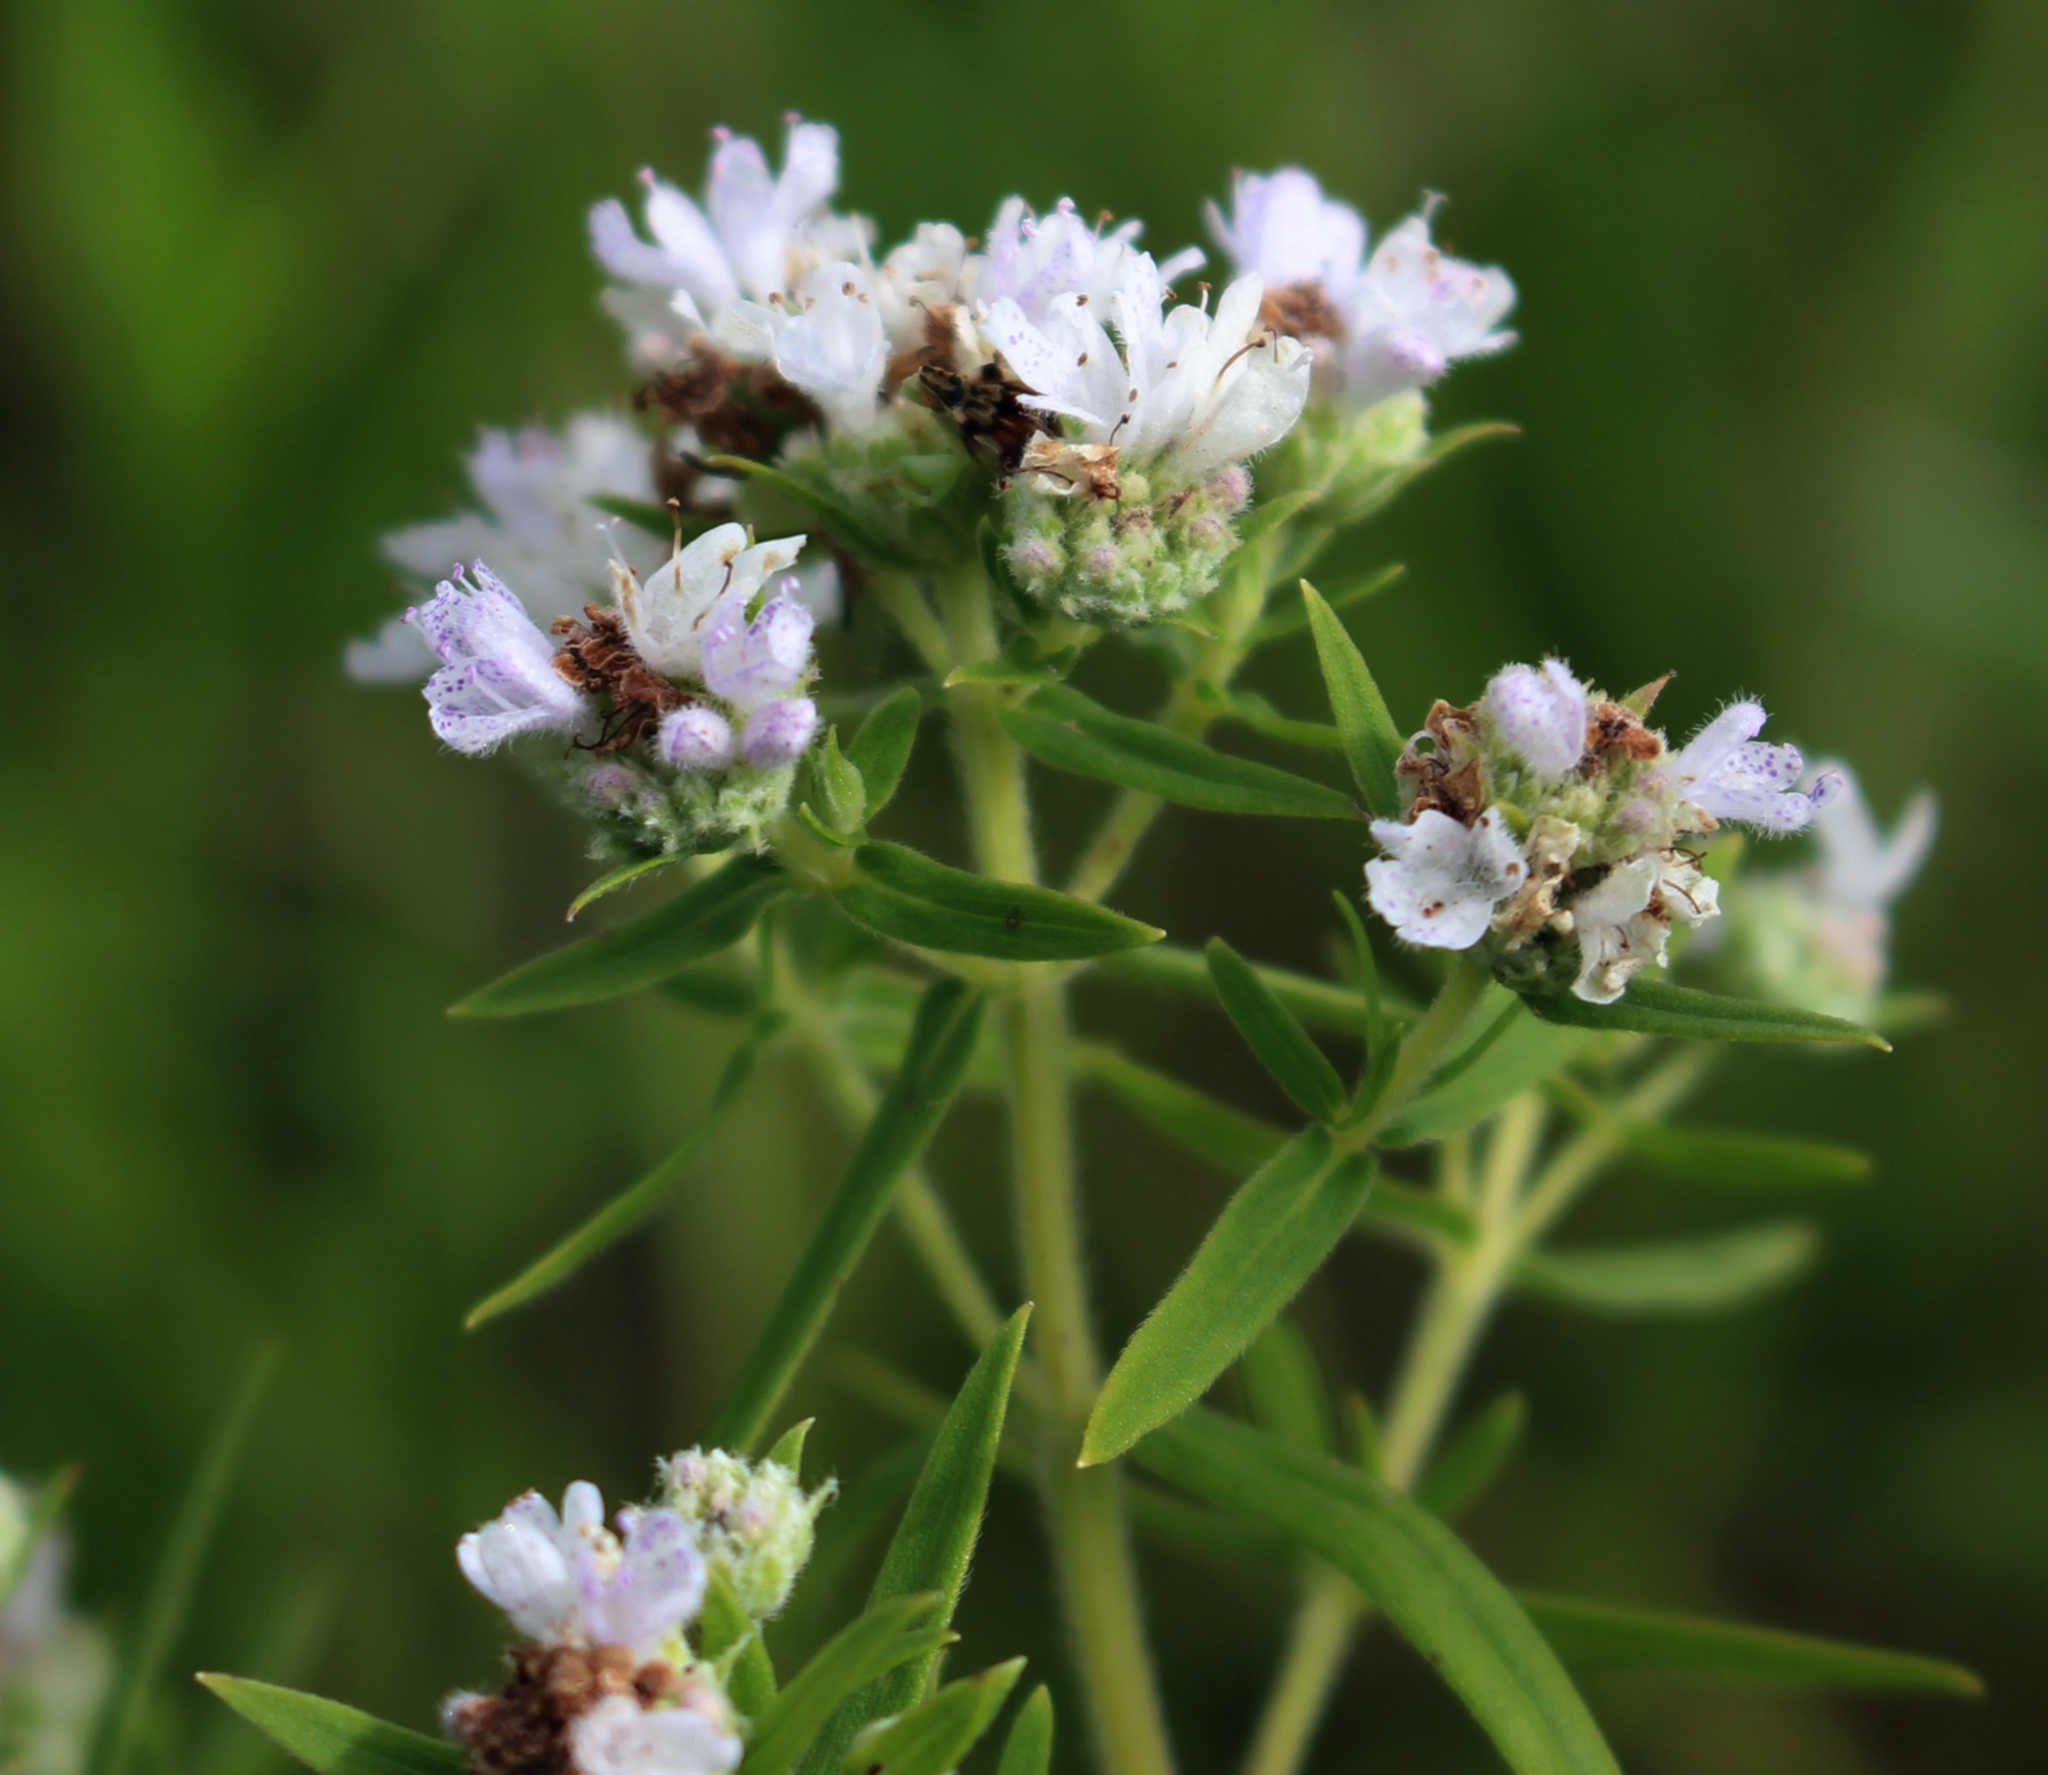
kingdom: Plantae
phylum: Tracheophyta
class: Magnoliopsida
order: Lamiales
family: Lamiaceae
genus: Pycnanthemum
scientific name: Pycnanthemum virginianum
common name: Virginia mountain-mint
